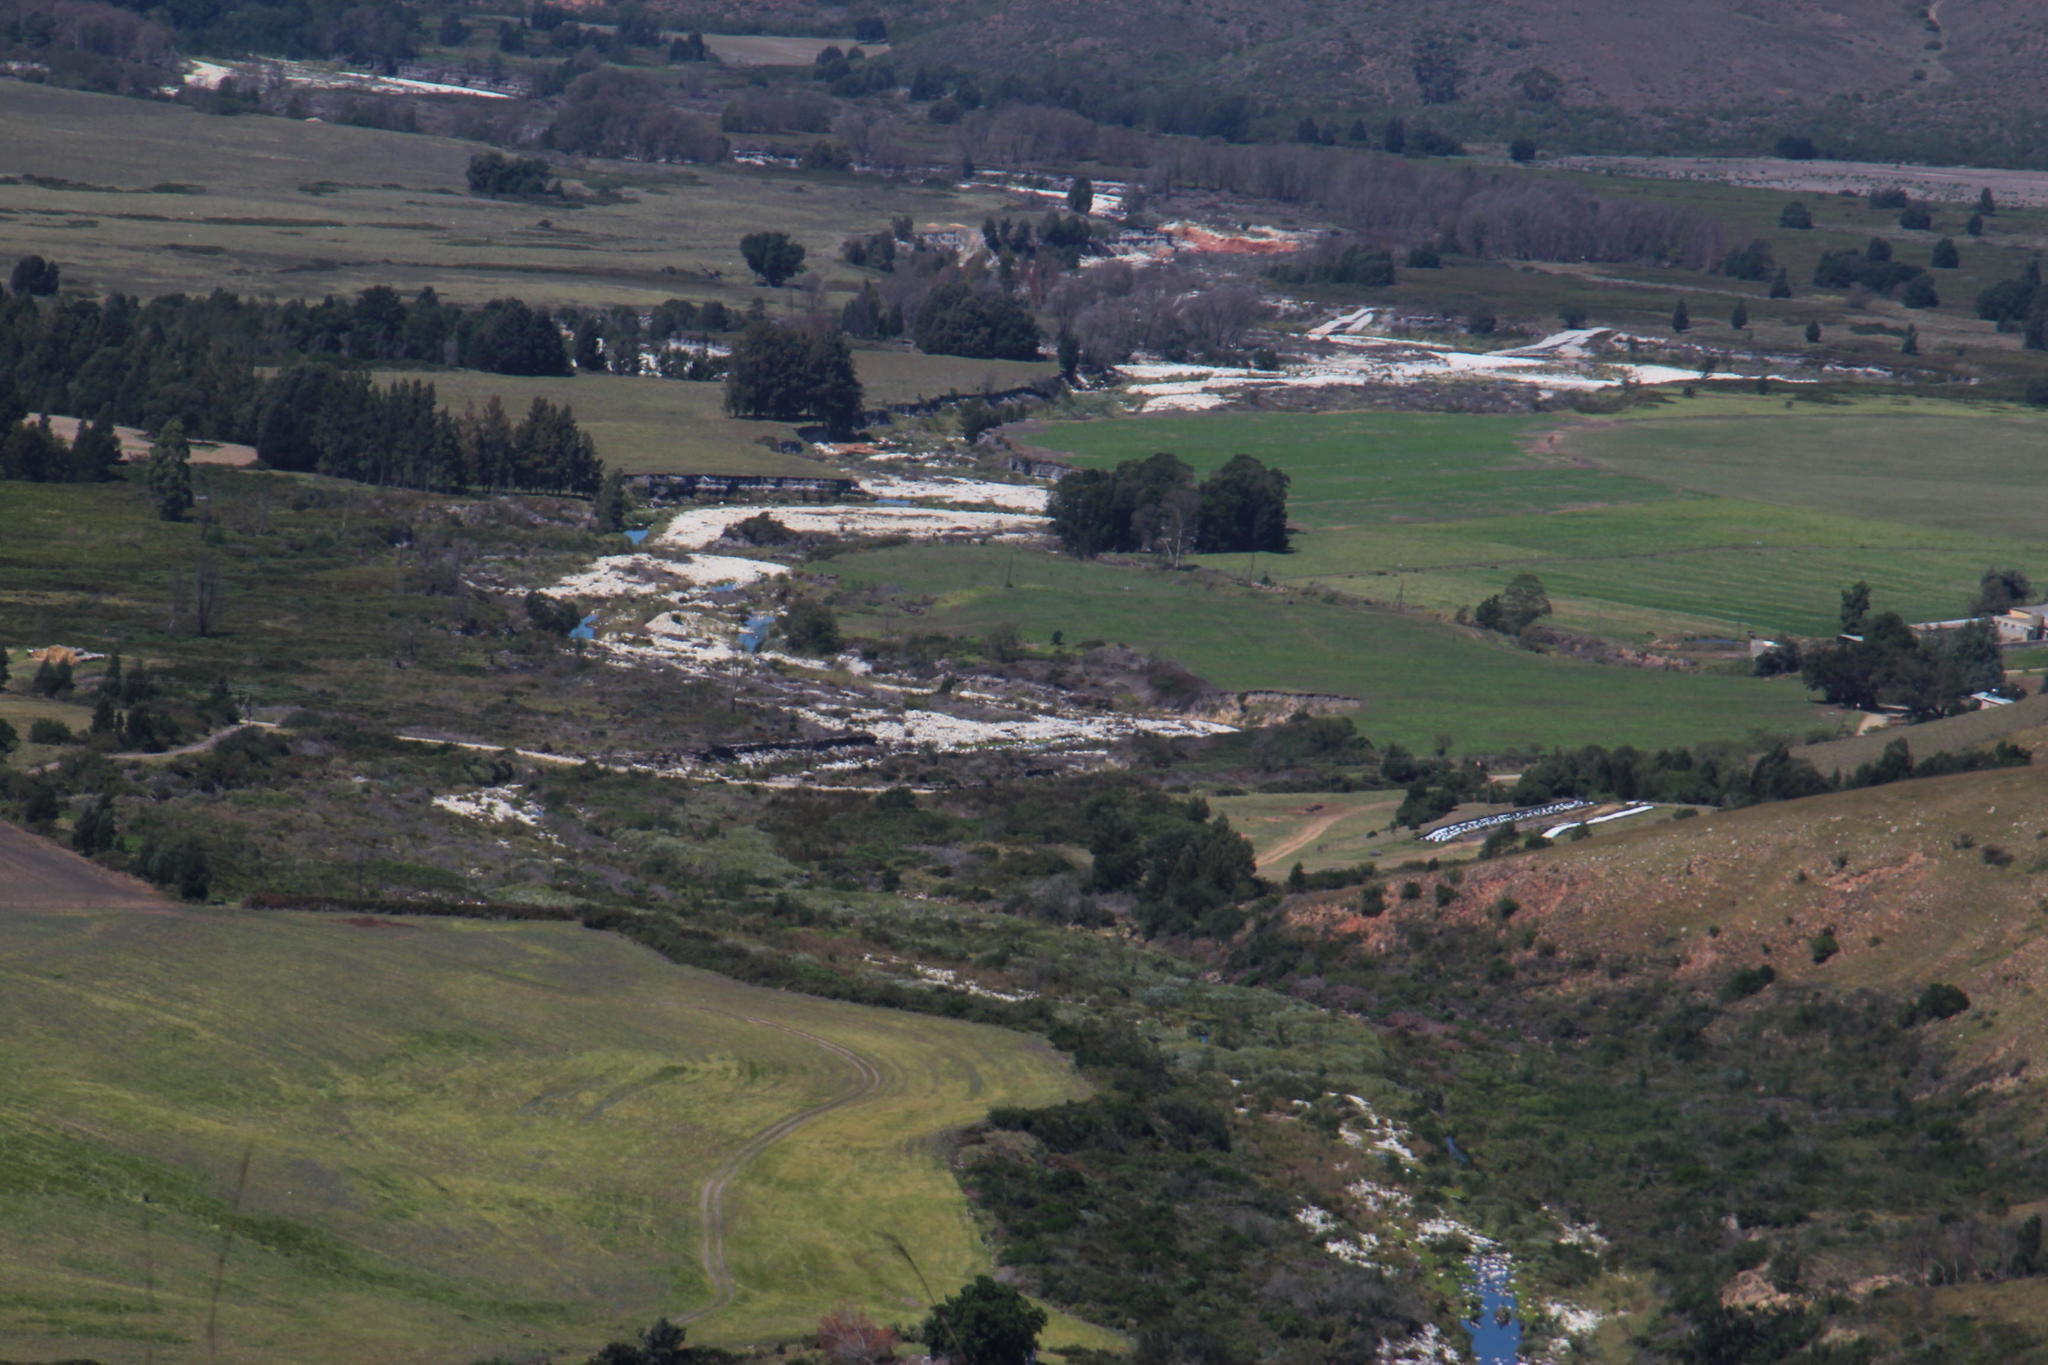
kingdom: Plantae
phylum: Tracheophyta
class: Liliopsida
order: Poales
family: Thurniaceae
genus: Prionium
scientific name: Prionium serratum
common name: Palmiet
